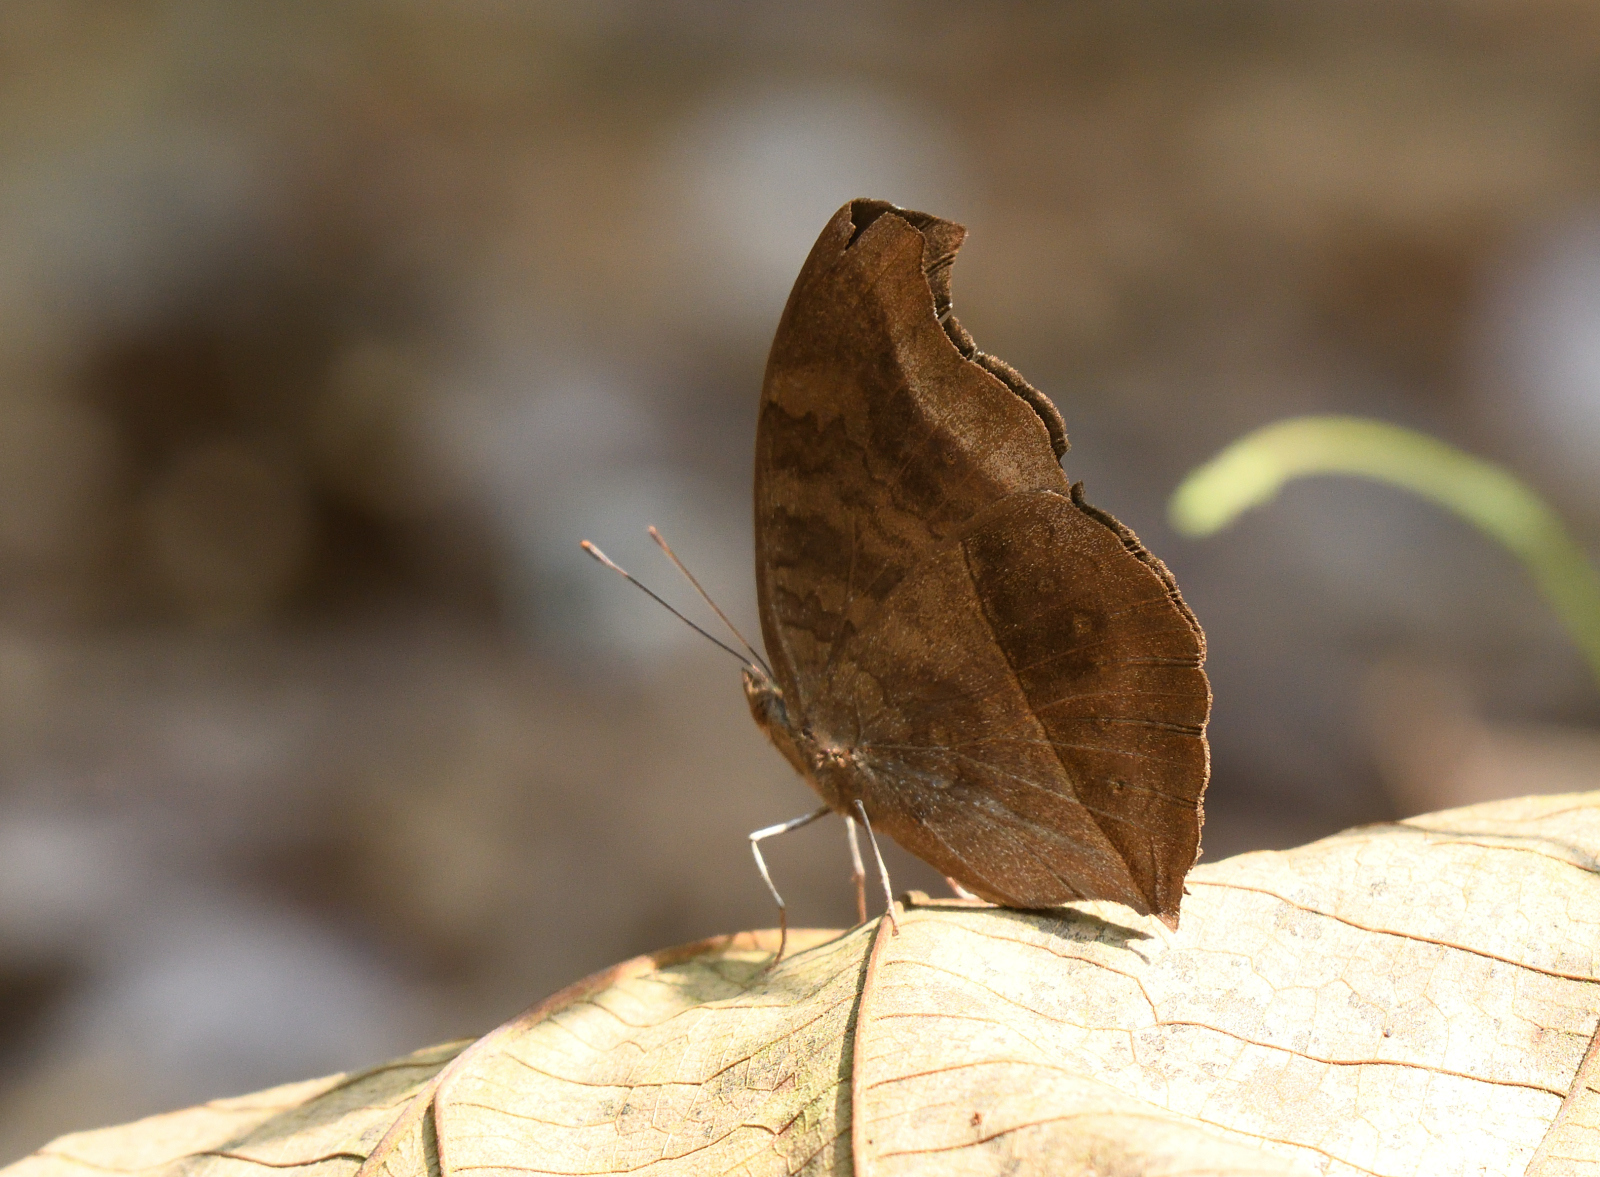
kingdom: Animalia
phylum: Arthropoda
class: Insecta
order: Lepidoptera
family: Nymphalidae
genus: Junonia
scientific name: Junonia iphita
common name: Chocolate pansy
